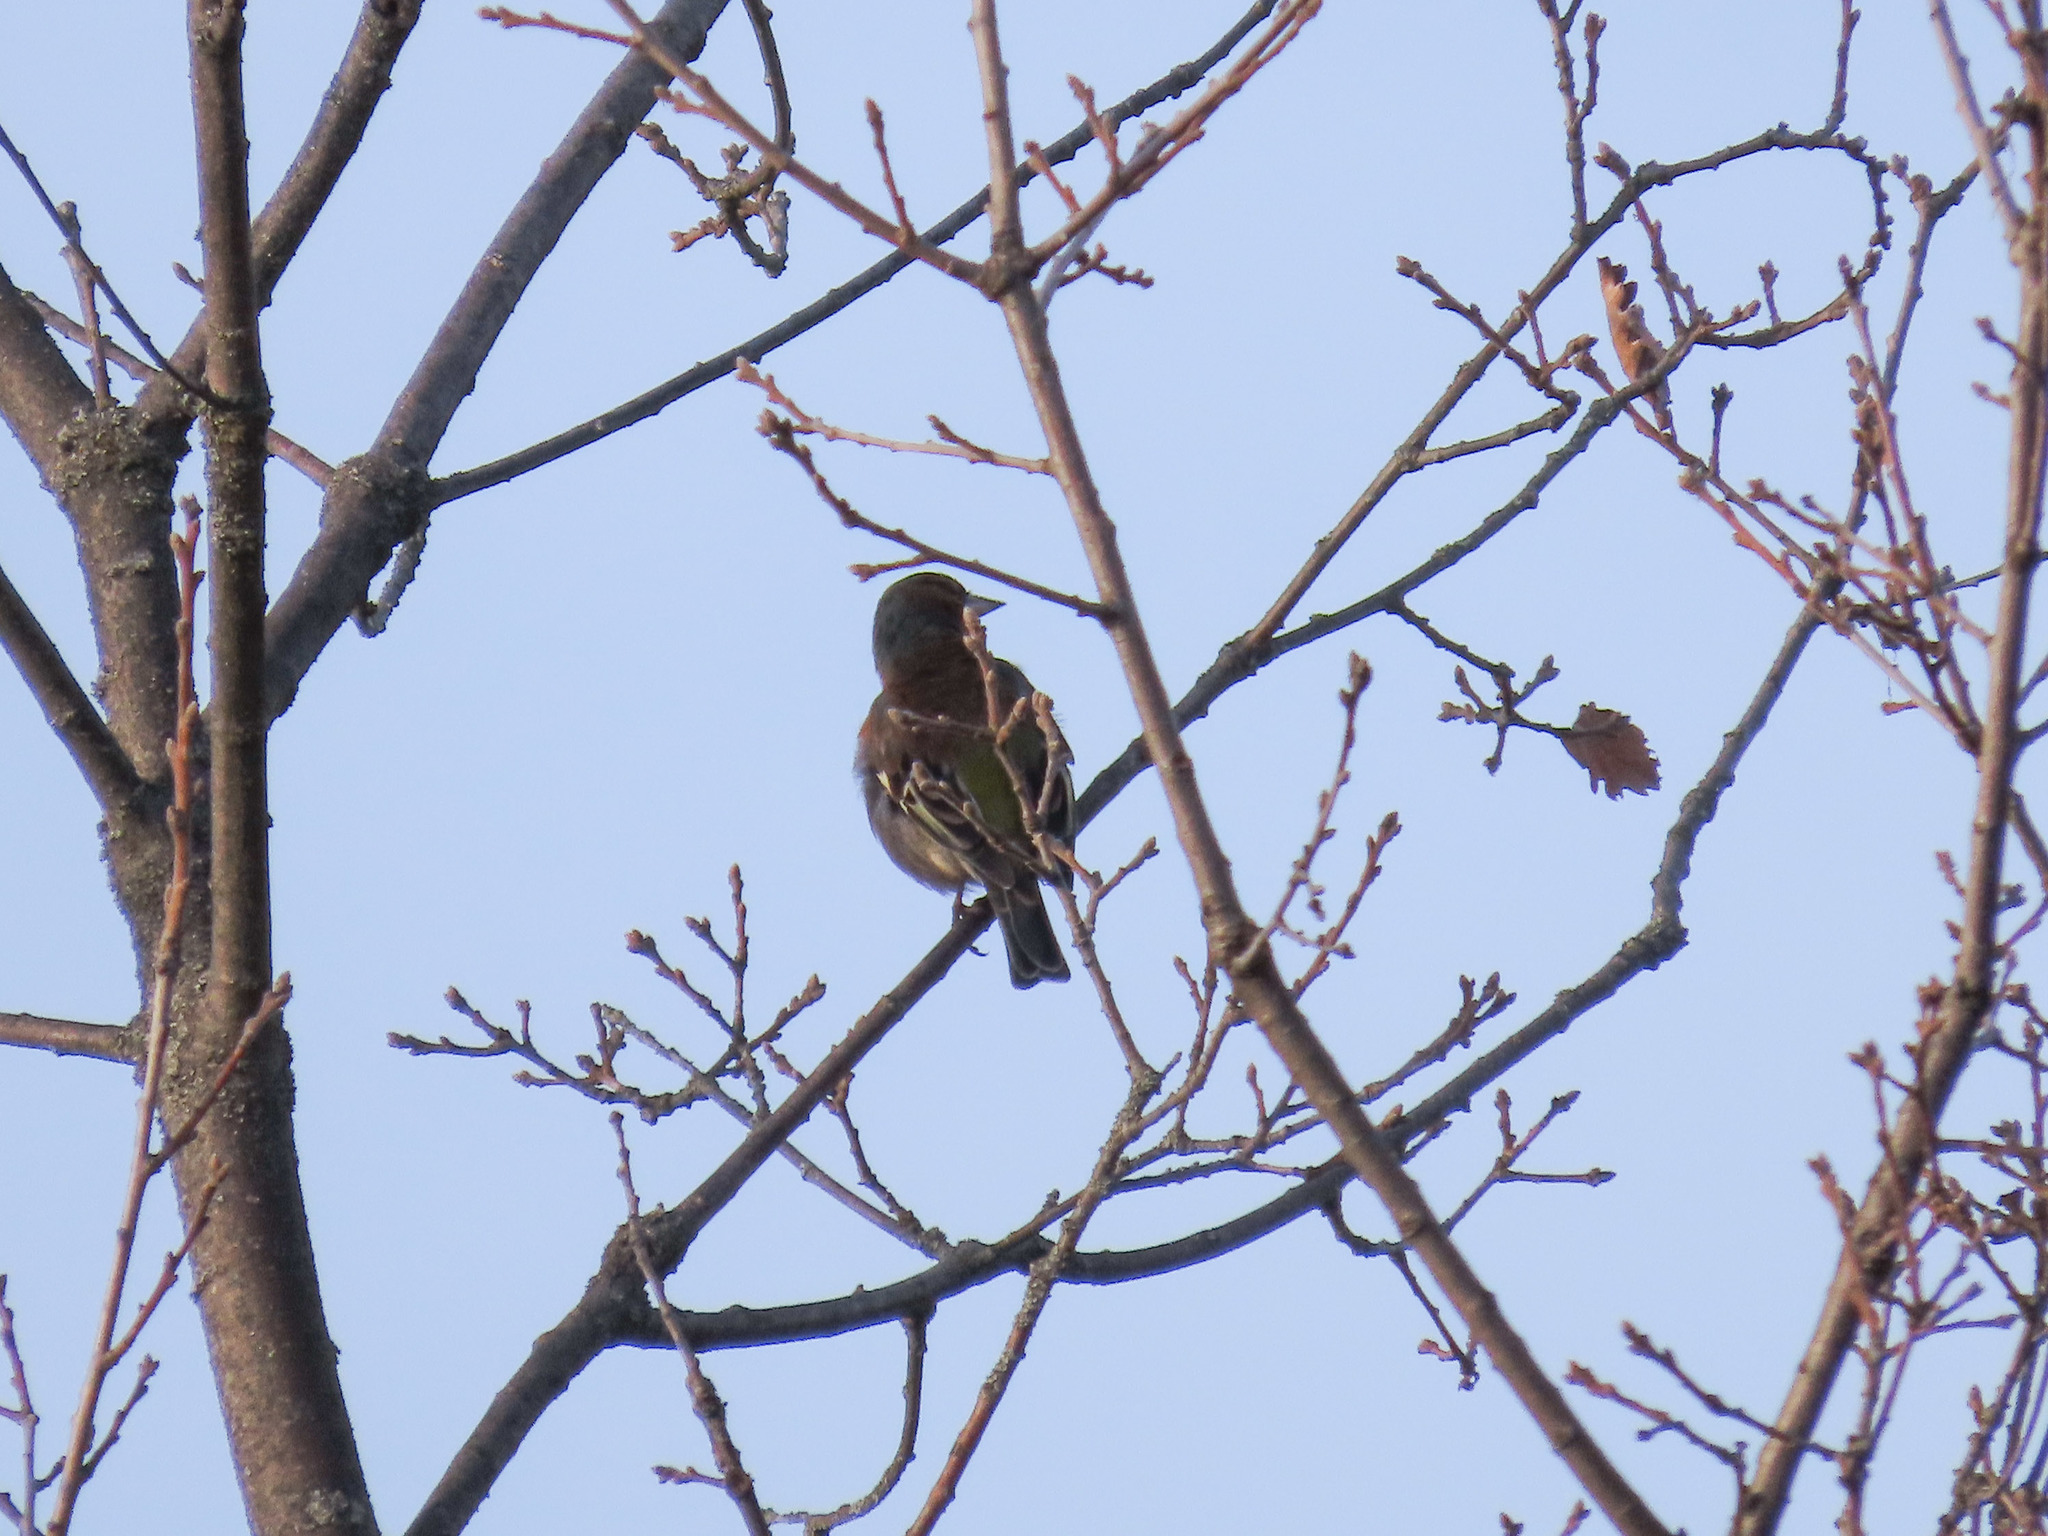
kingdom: Animalia
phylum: Chordata
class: Aves
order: Passeriformes
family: Fringillidae
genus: Fringilla
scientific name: Fringilla coelebs
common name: Common chaffinch
